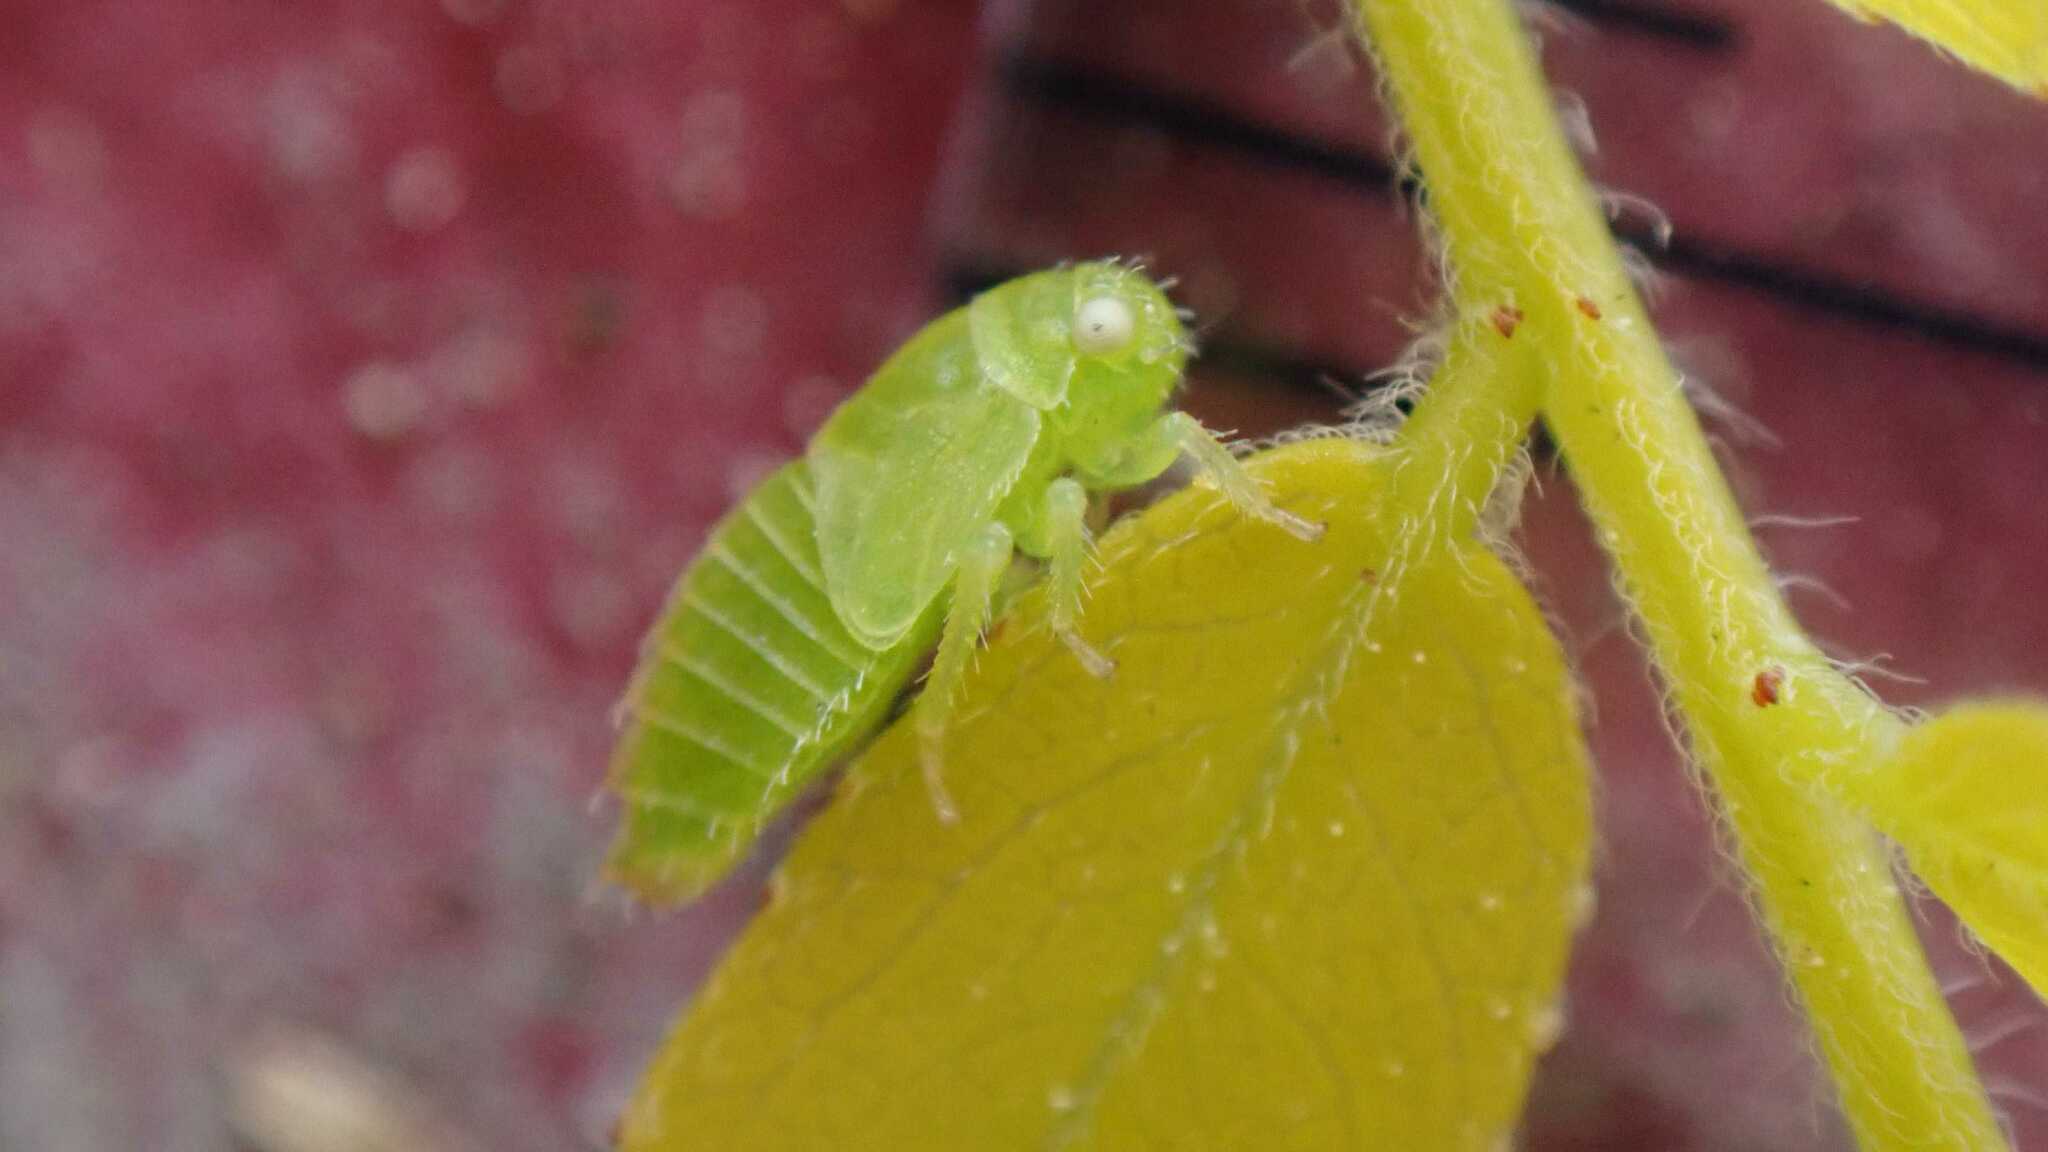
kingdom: Animalia
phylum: Arthropoda
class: Insecta
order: Hemiptera
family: Cicadellidae
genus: Macropsis
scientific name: Macropsis fumipennis
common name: The honeylocust leafhopper
